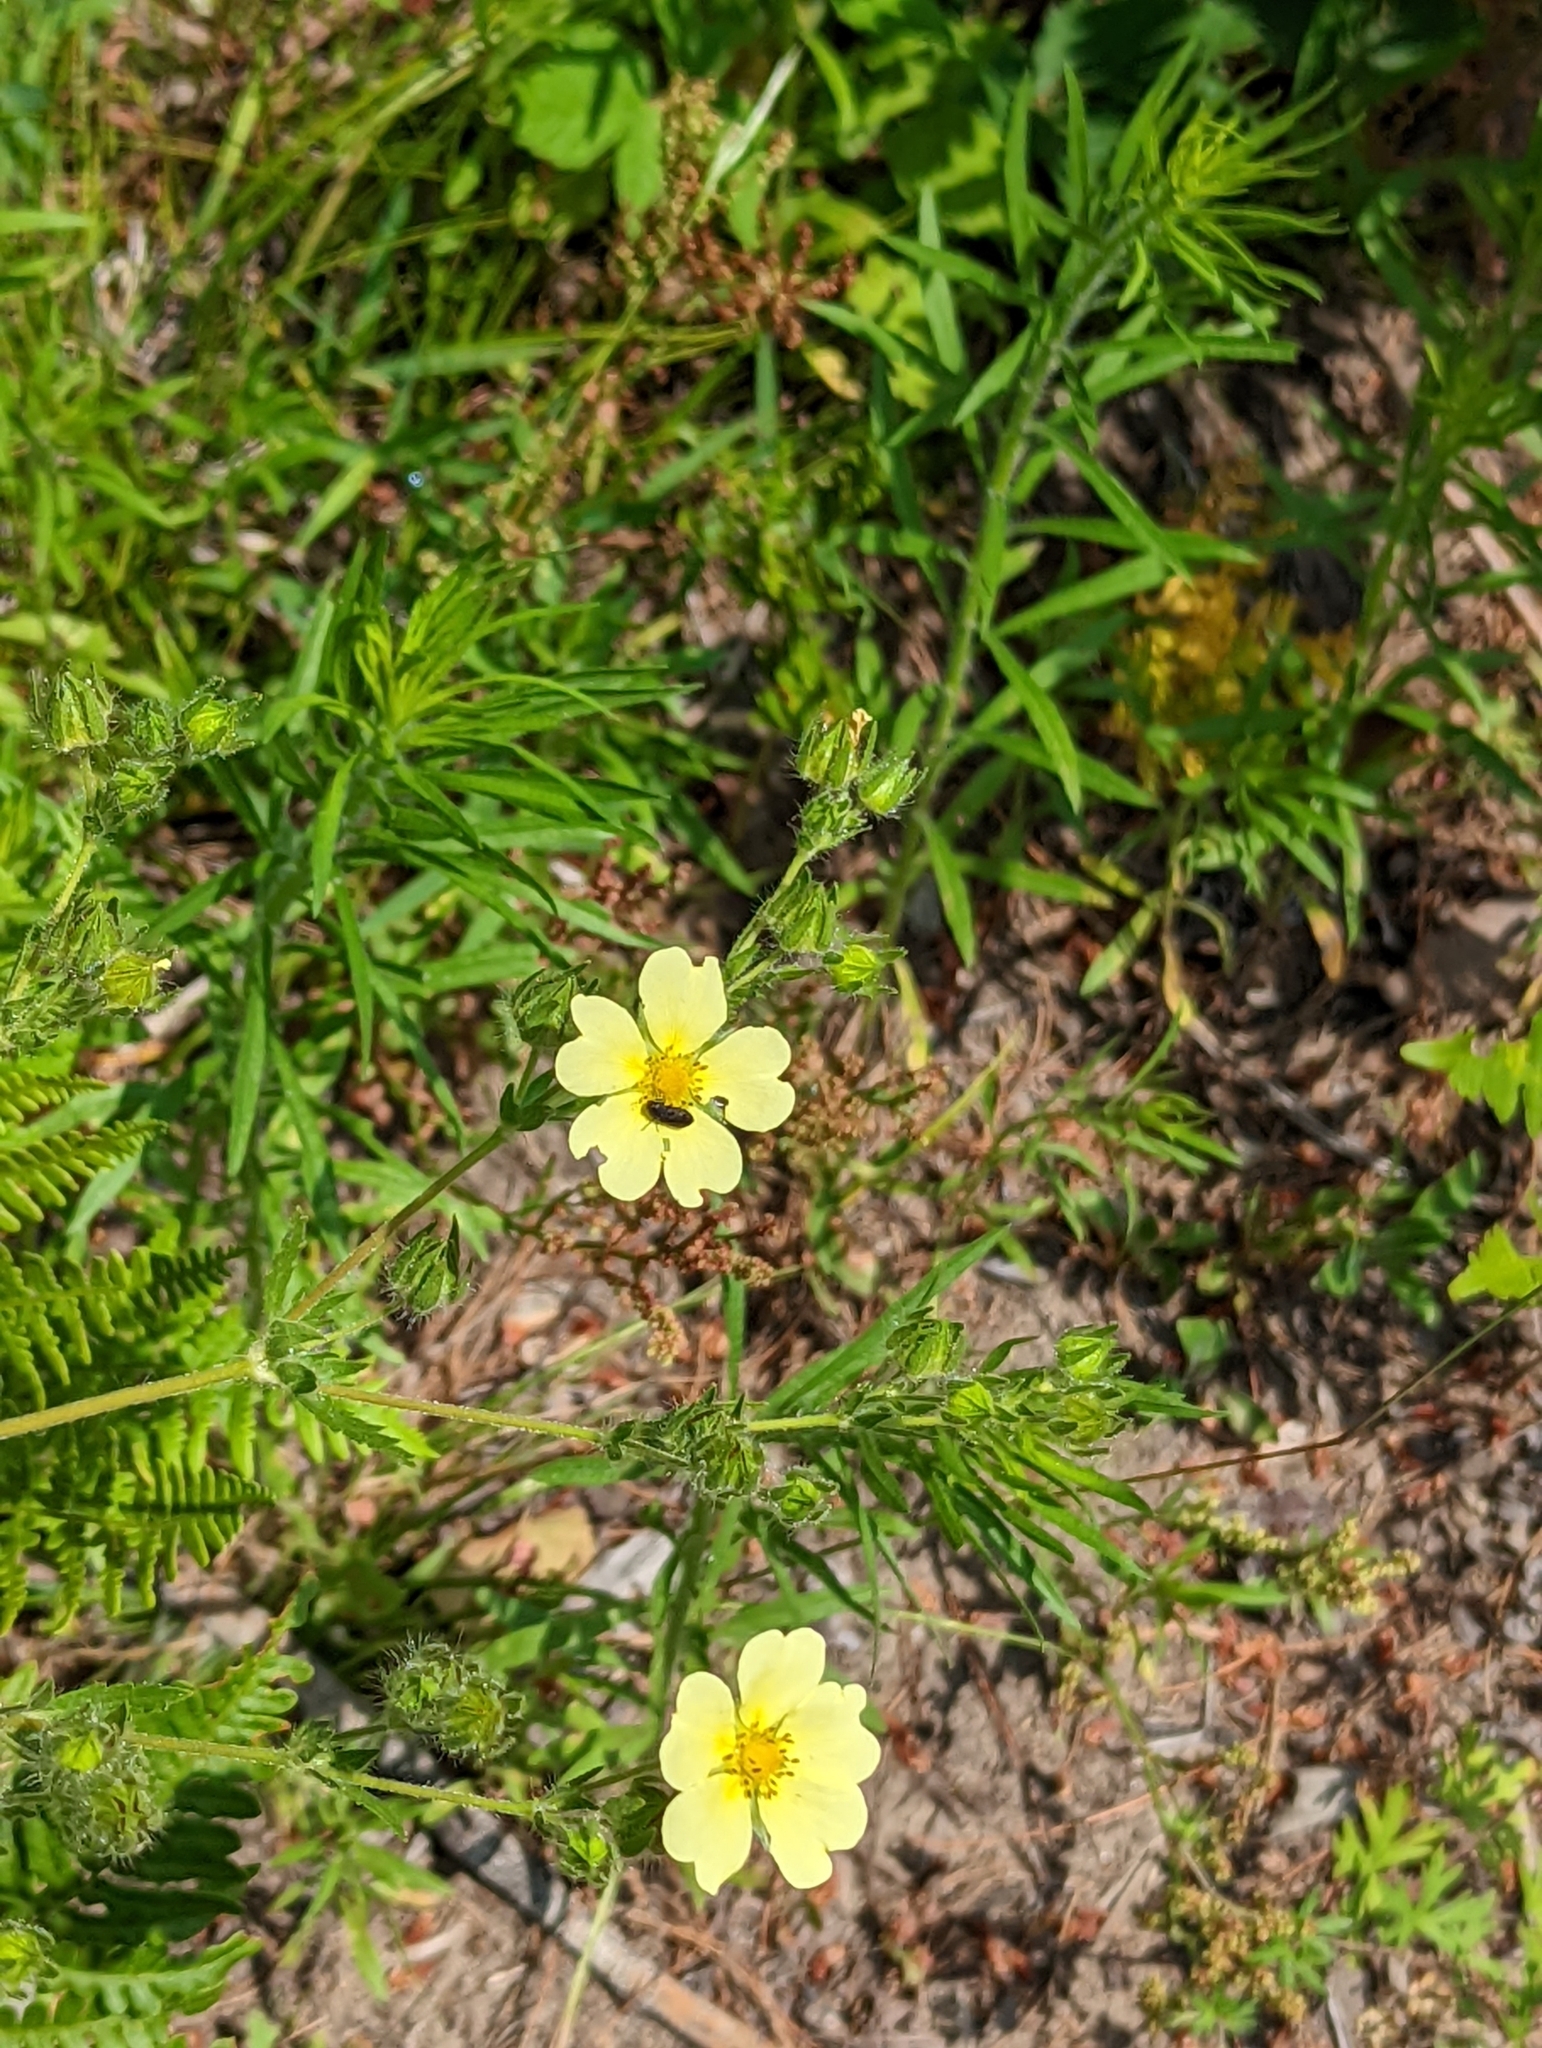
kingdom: Plantae
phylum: Tracheophyta
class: Magnoliopsida
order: Rosales
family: Rosaceae
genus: Potentilla
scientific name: Potentilla recta
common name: Sulphur cinquefoil
